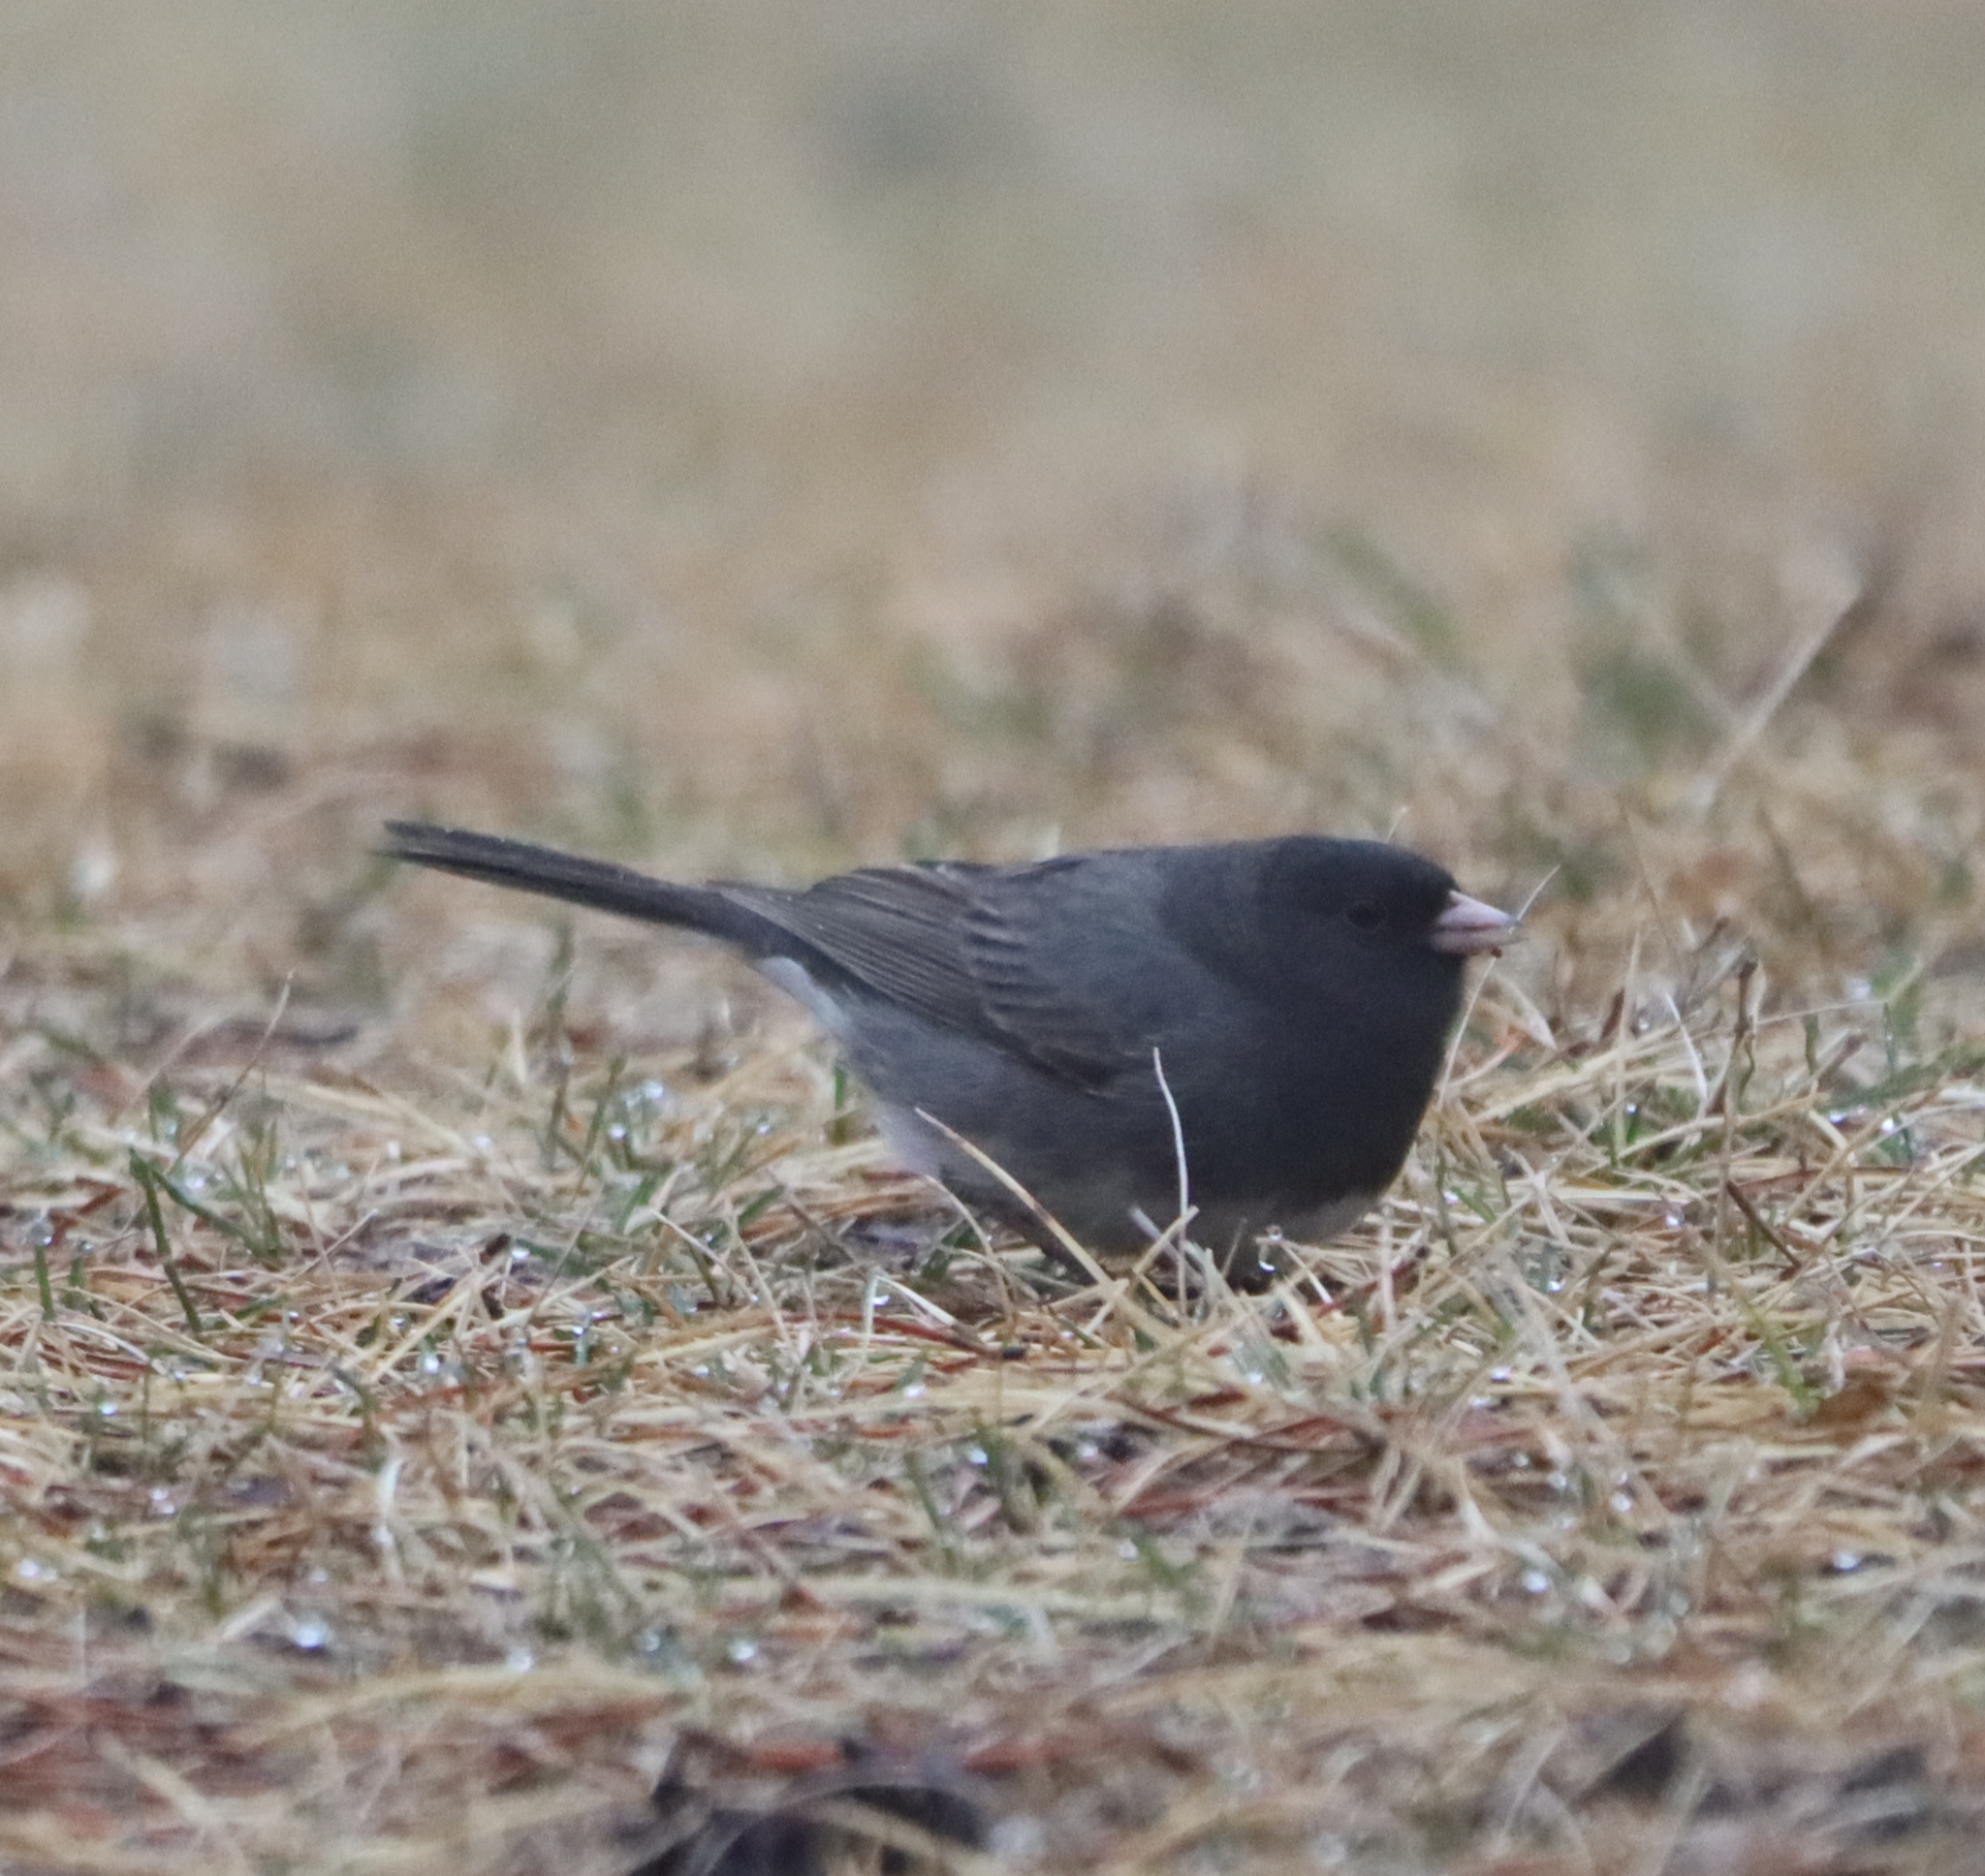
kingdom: Animalia
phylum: Chordata
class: Aves
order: Passeriformes
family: Passerellidae
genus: Junco
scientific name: Junco hyemalis
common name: Dark-eyed junco
